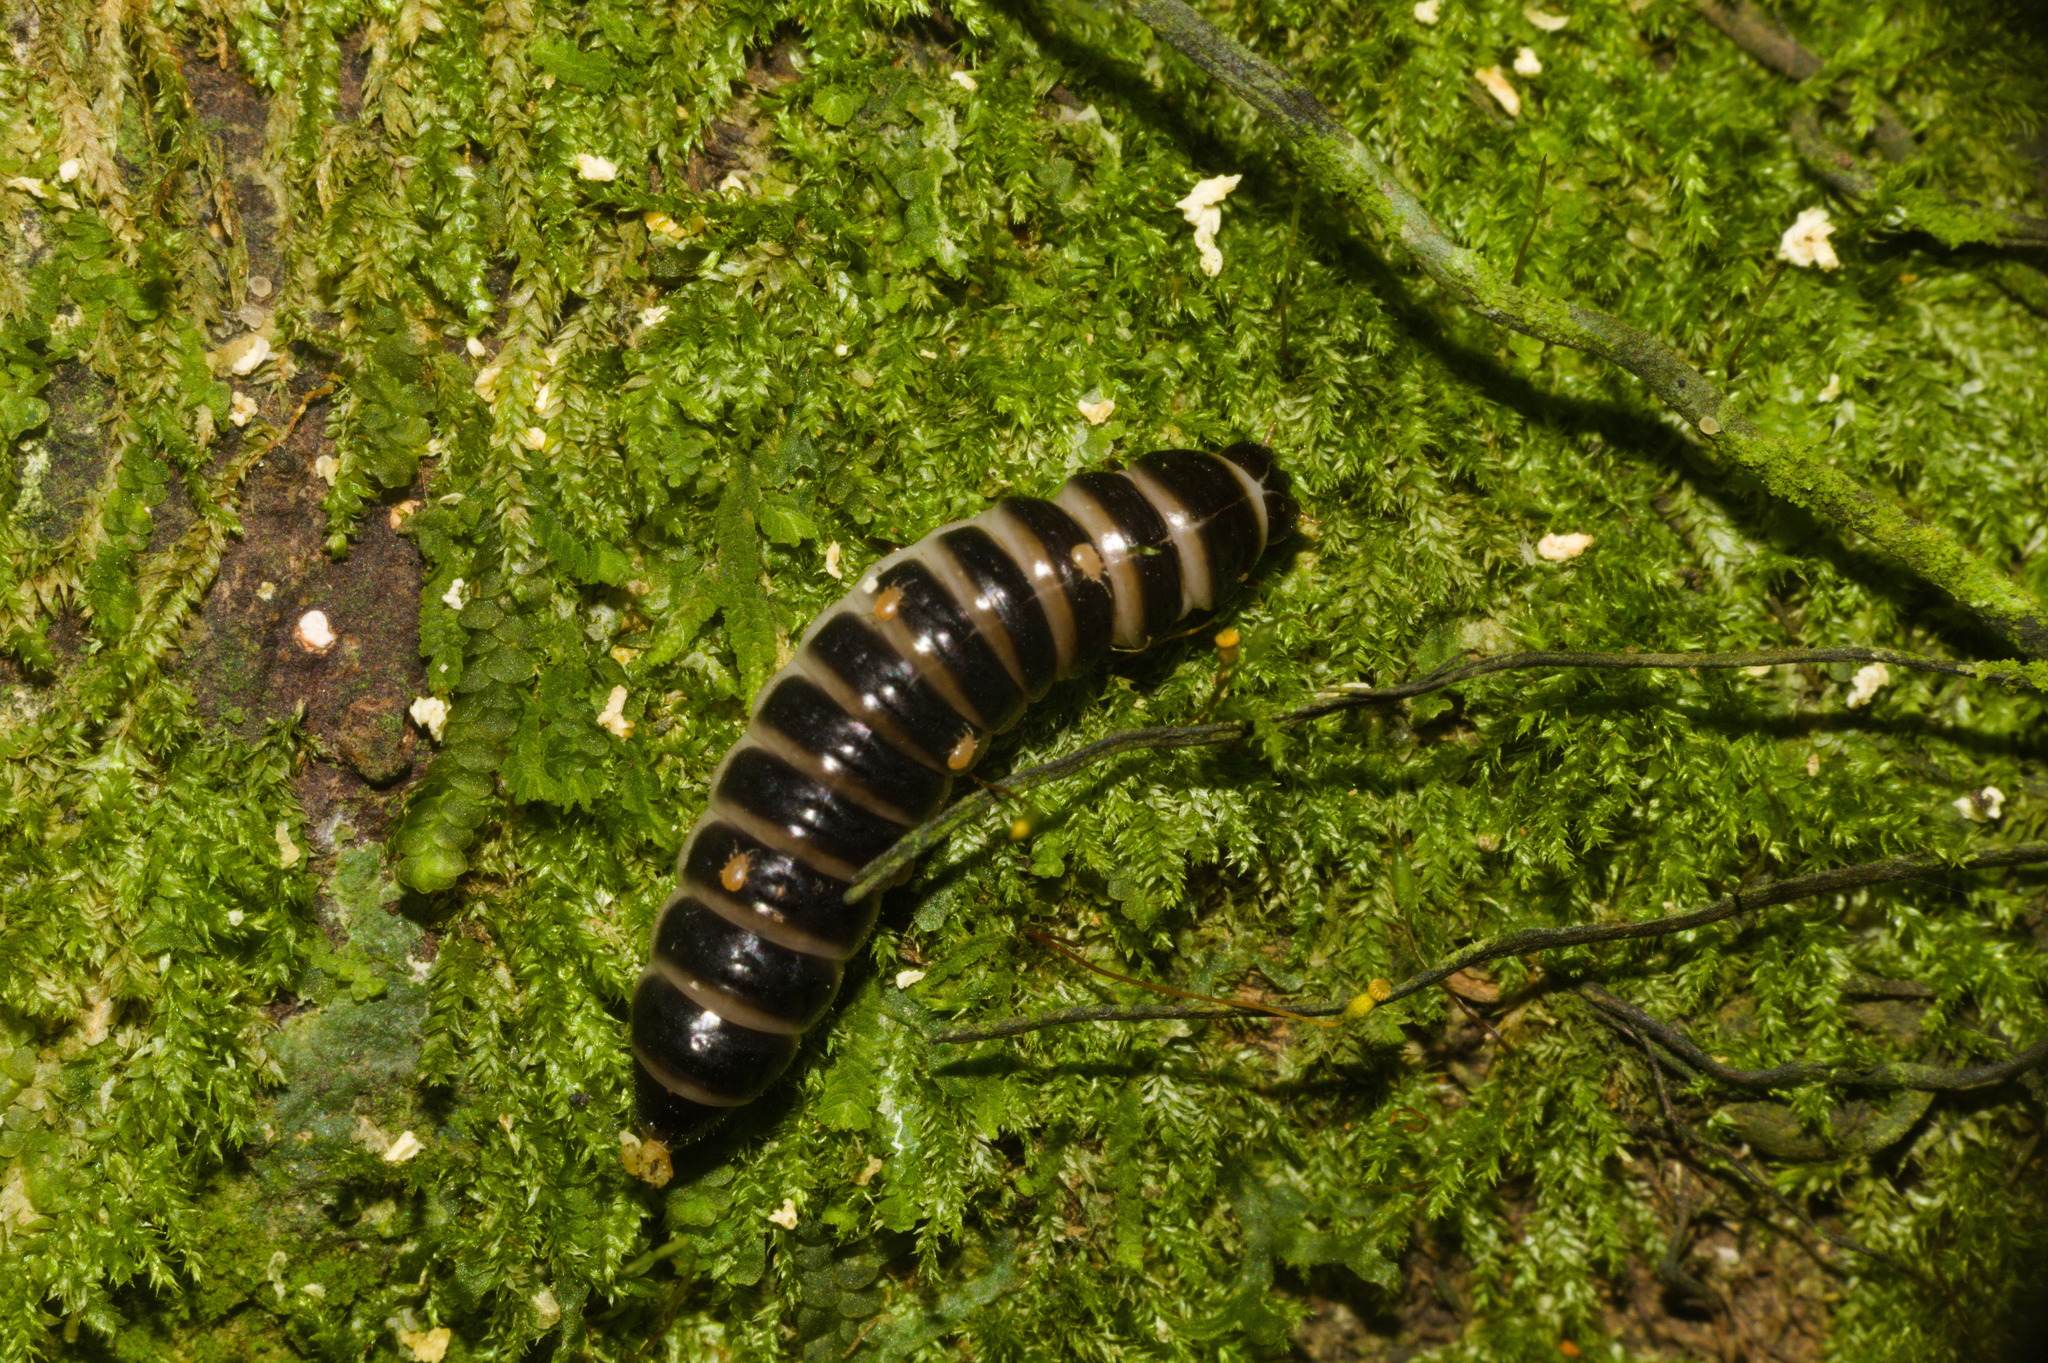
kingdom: Animalia
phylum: Arthropoda
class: Insecta
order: Coleoptera
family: Erotylidae
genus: Pselaphacus
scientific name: Pselaphacus puncticollis
